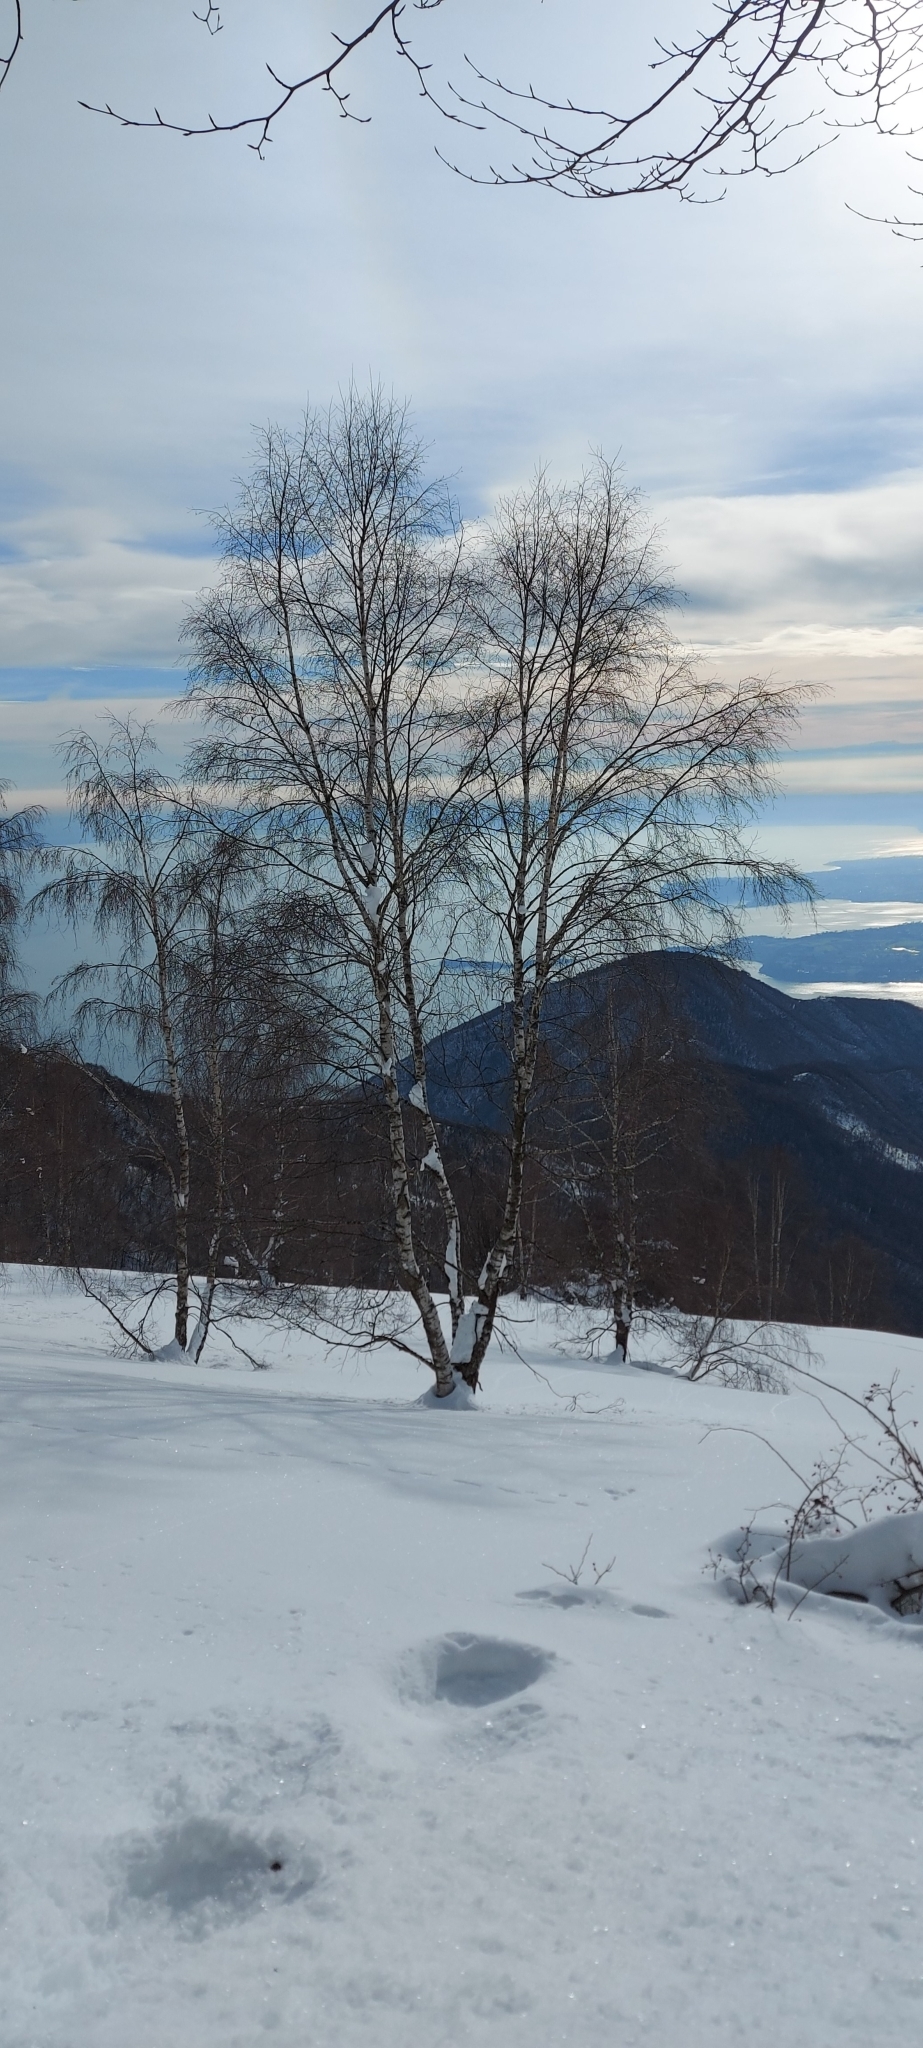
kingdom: Plantae
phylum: Tracheophyta
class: Magnoliopsida
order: Fagales
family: Betulaceae
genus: Betula
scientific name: Betula pendula
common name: Silver birch
